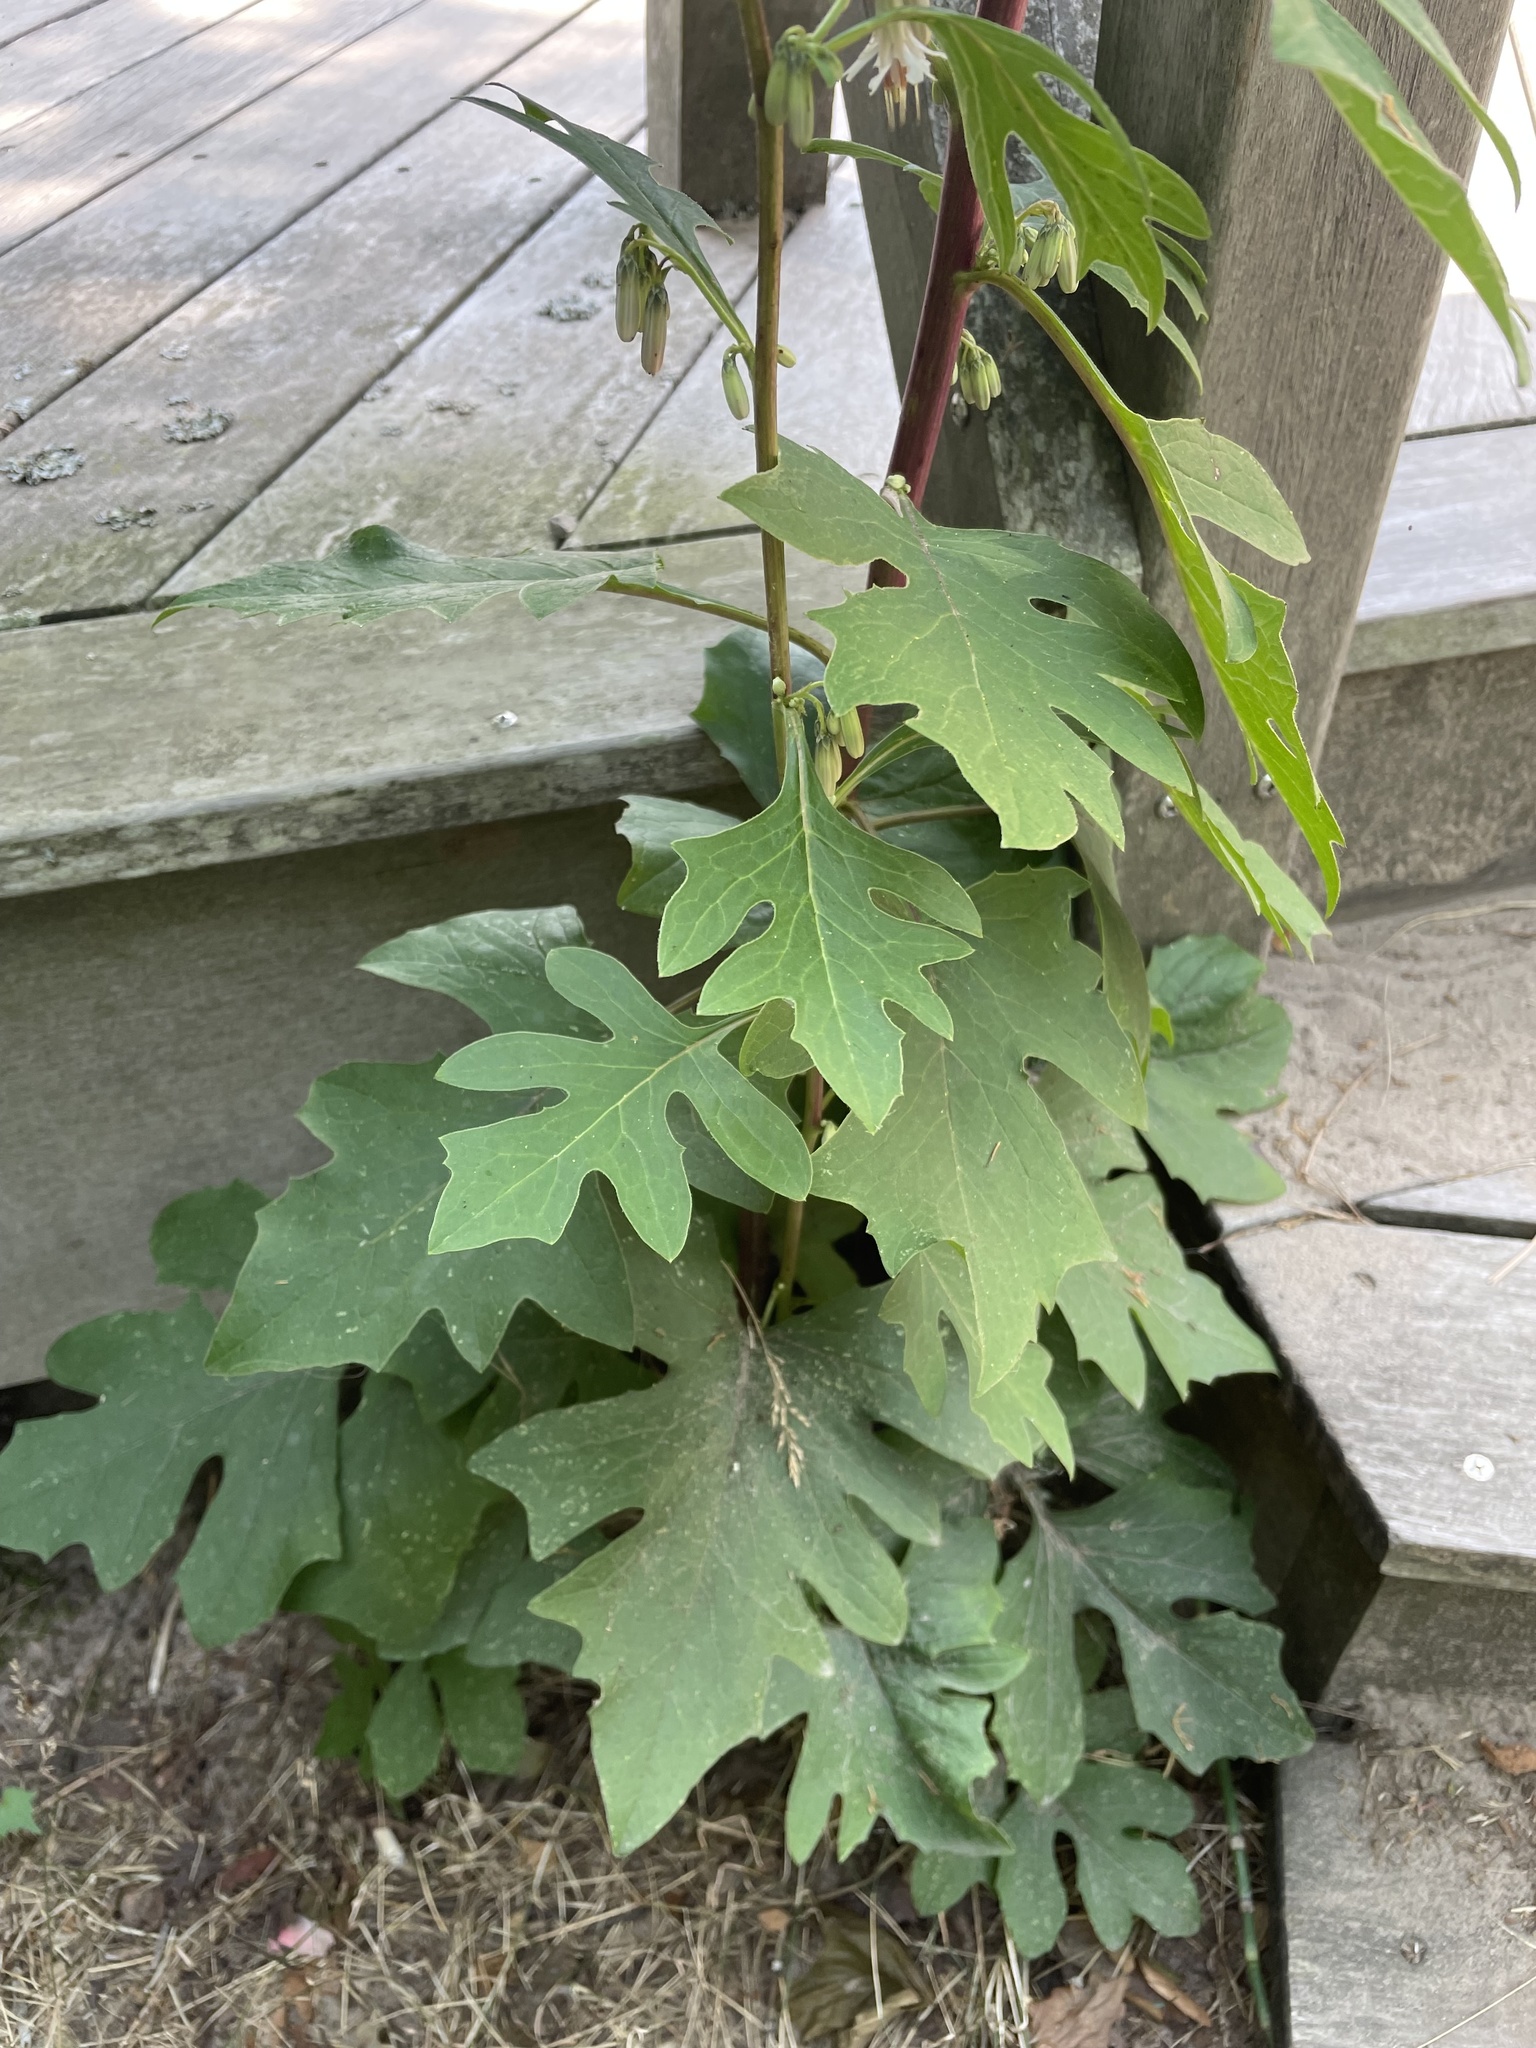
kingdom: Plantae
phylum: Tracheophyta
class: Magnoliopsida
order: Asterales
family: Asteraceae
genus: Nabalus
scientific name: Nabalus albus
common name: White rattlesnakeroot
